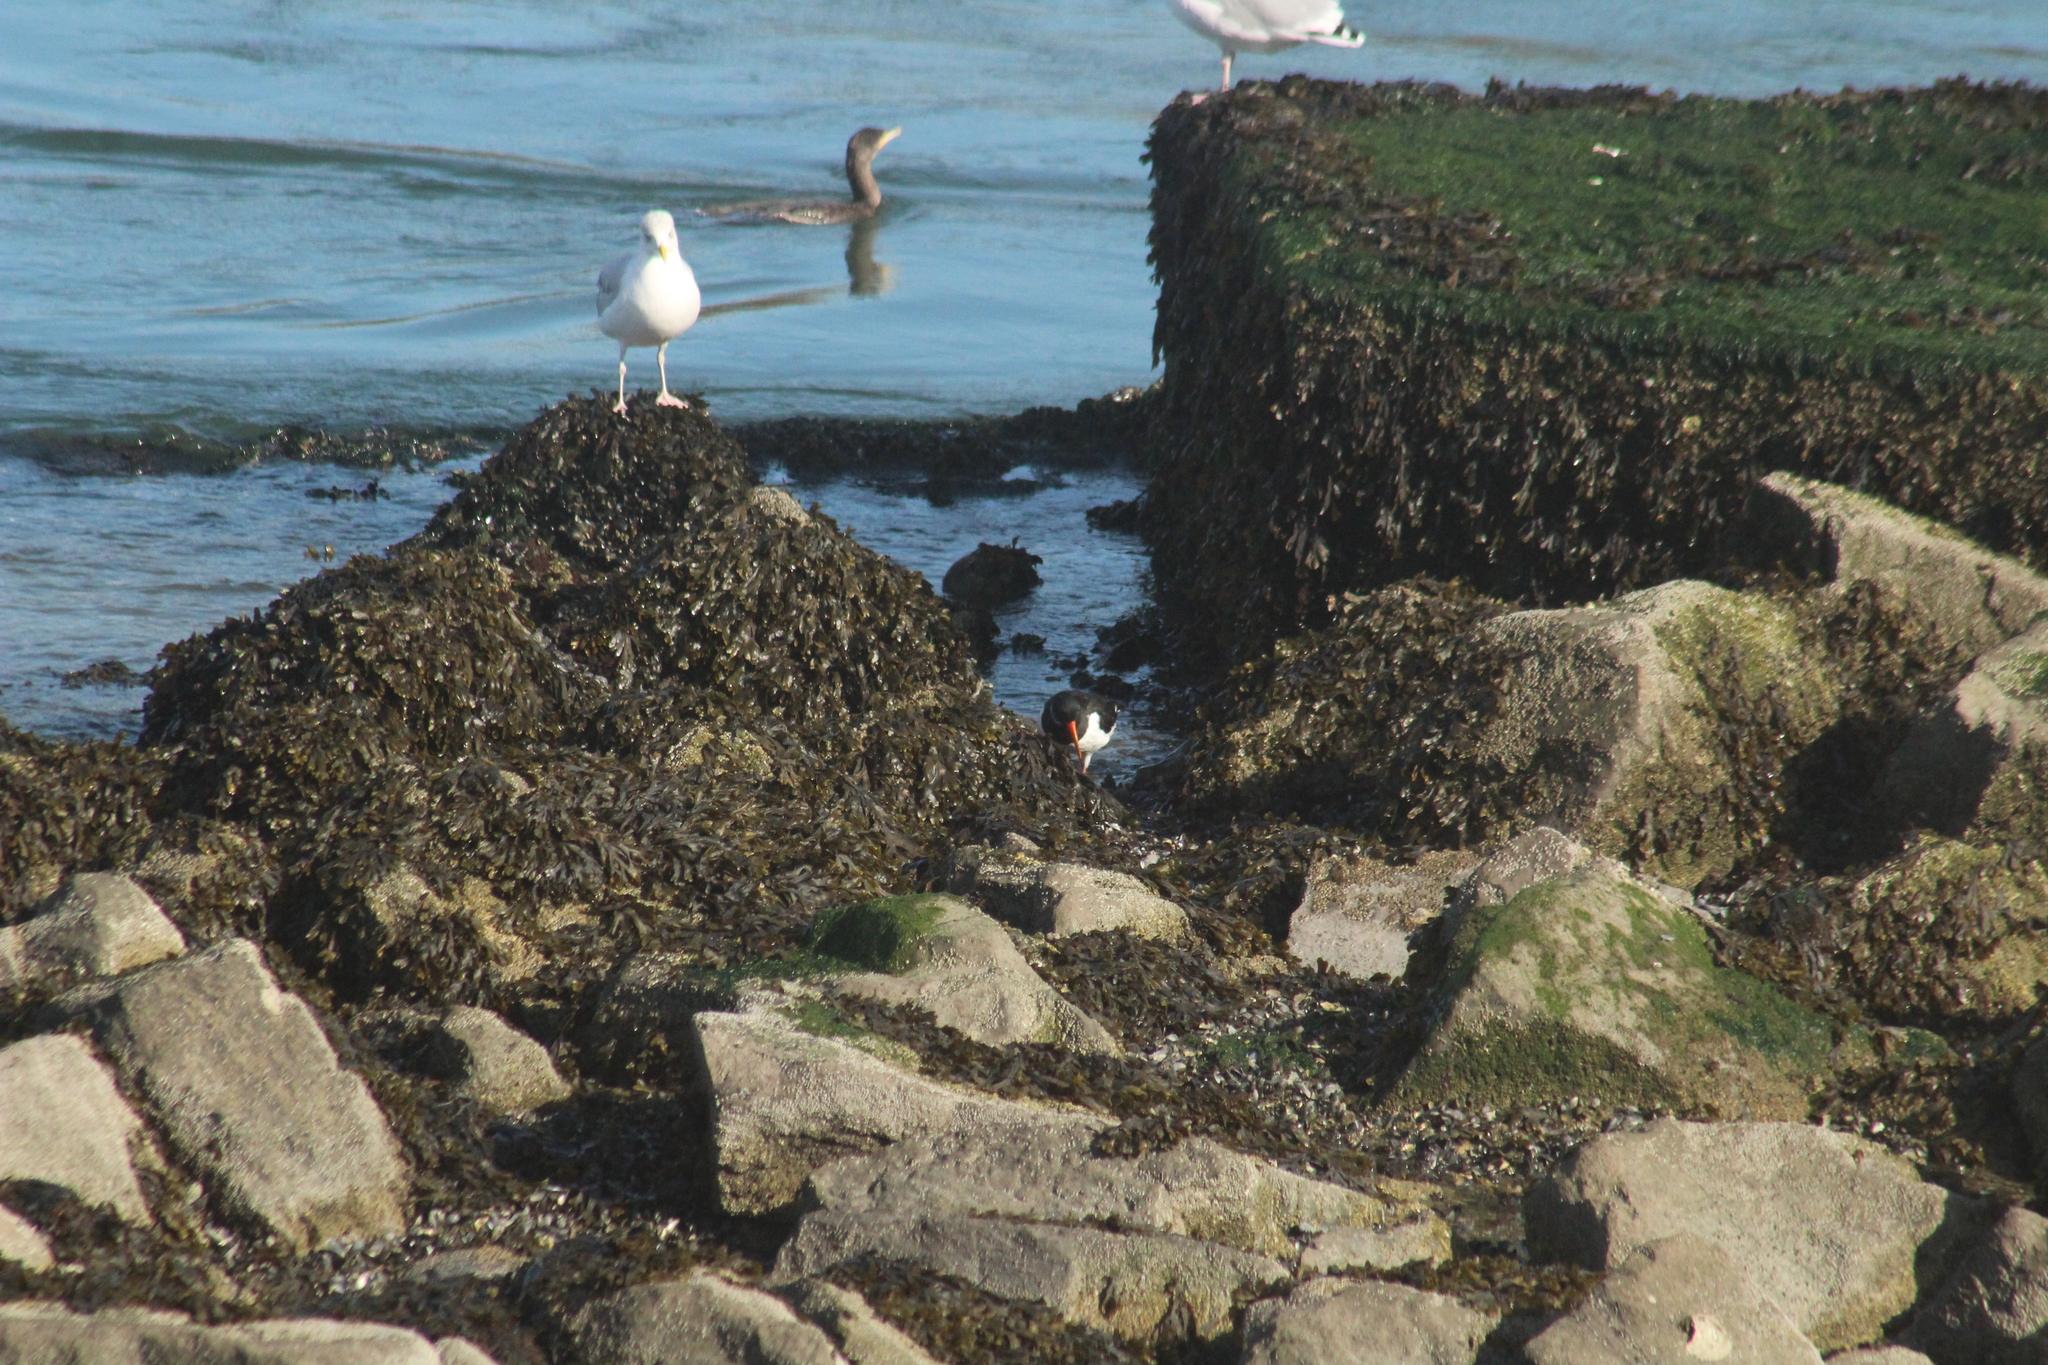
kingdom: Animalia
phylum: Chordata
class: Aves
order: Charadriiformes
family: Haematopodidae
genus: Haematopus
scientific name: Haematopus ostralegus
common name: Eurasian oystercatcher
